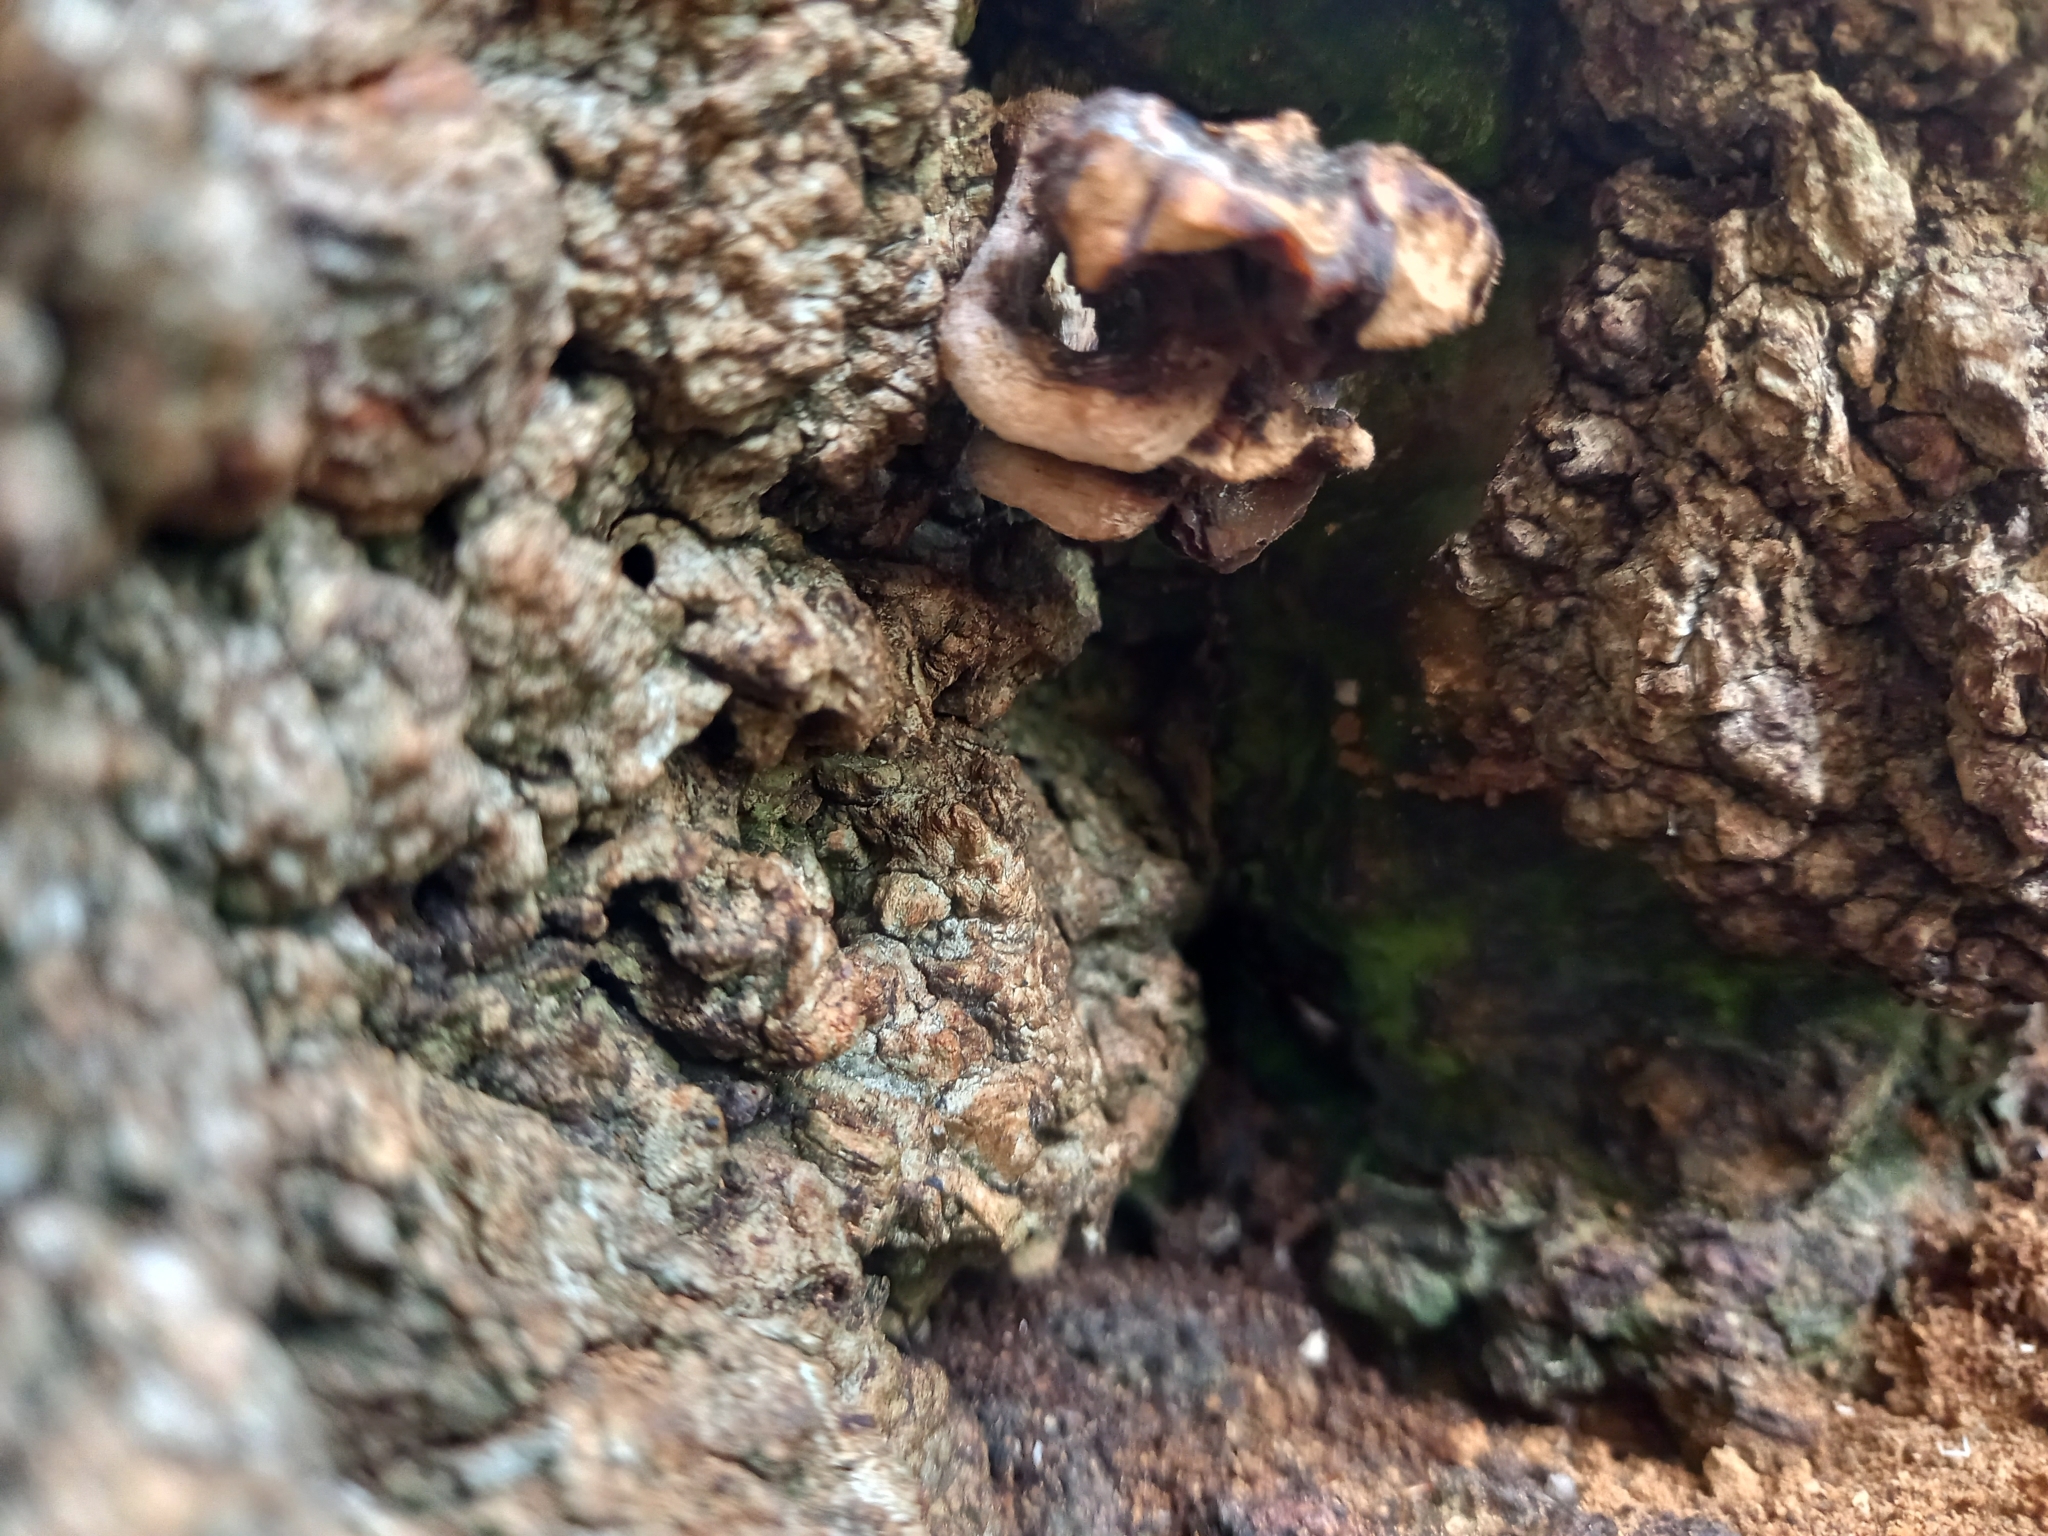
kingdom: Fungi
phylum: Basidiomycota
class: Agaricomycetes
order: Agaricales
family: Tubariaceae
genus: Cyclocybe
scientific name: Cyclocybe parasitica
